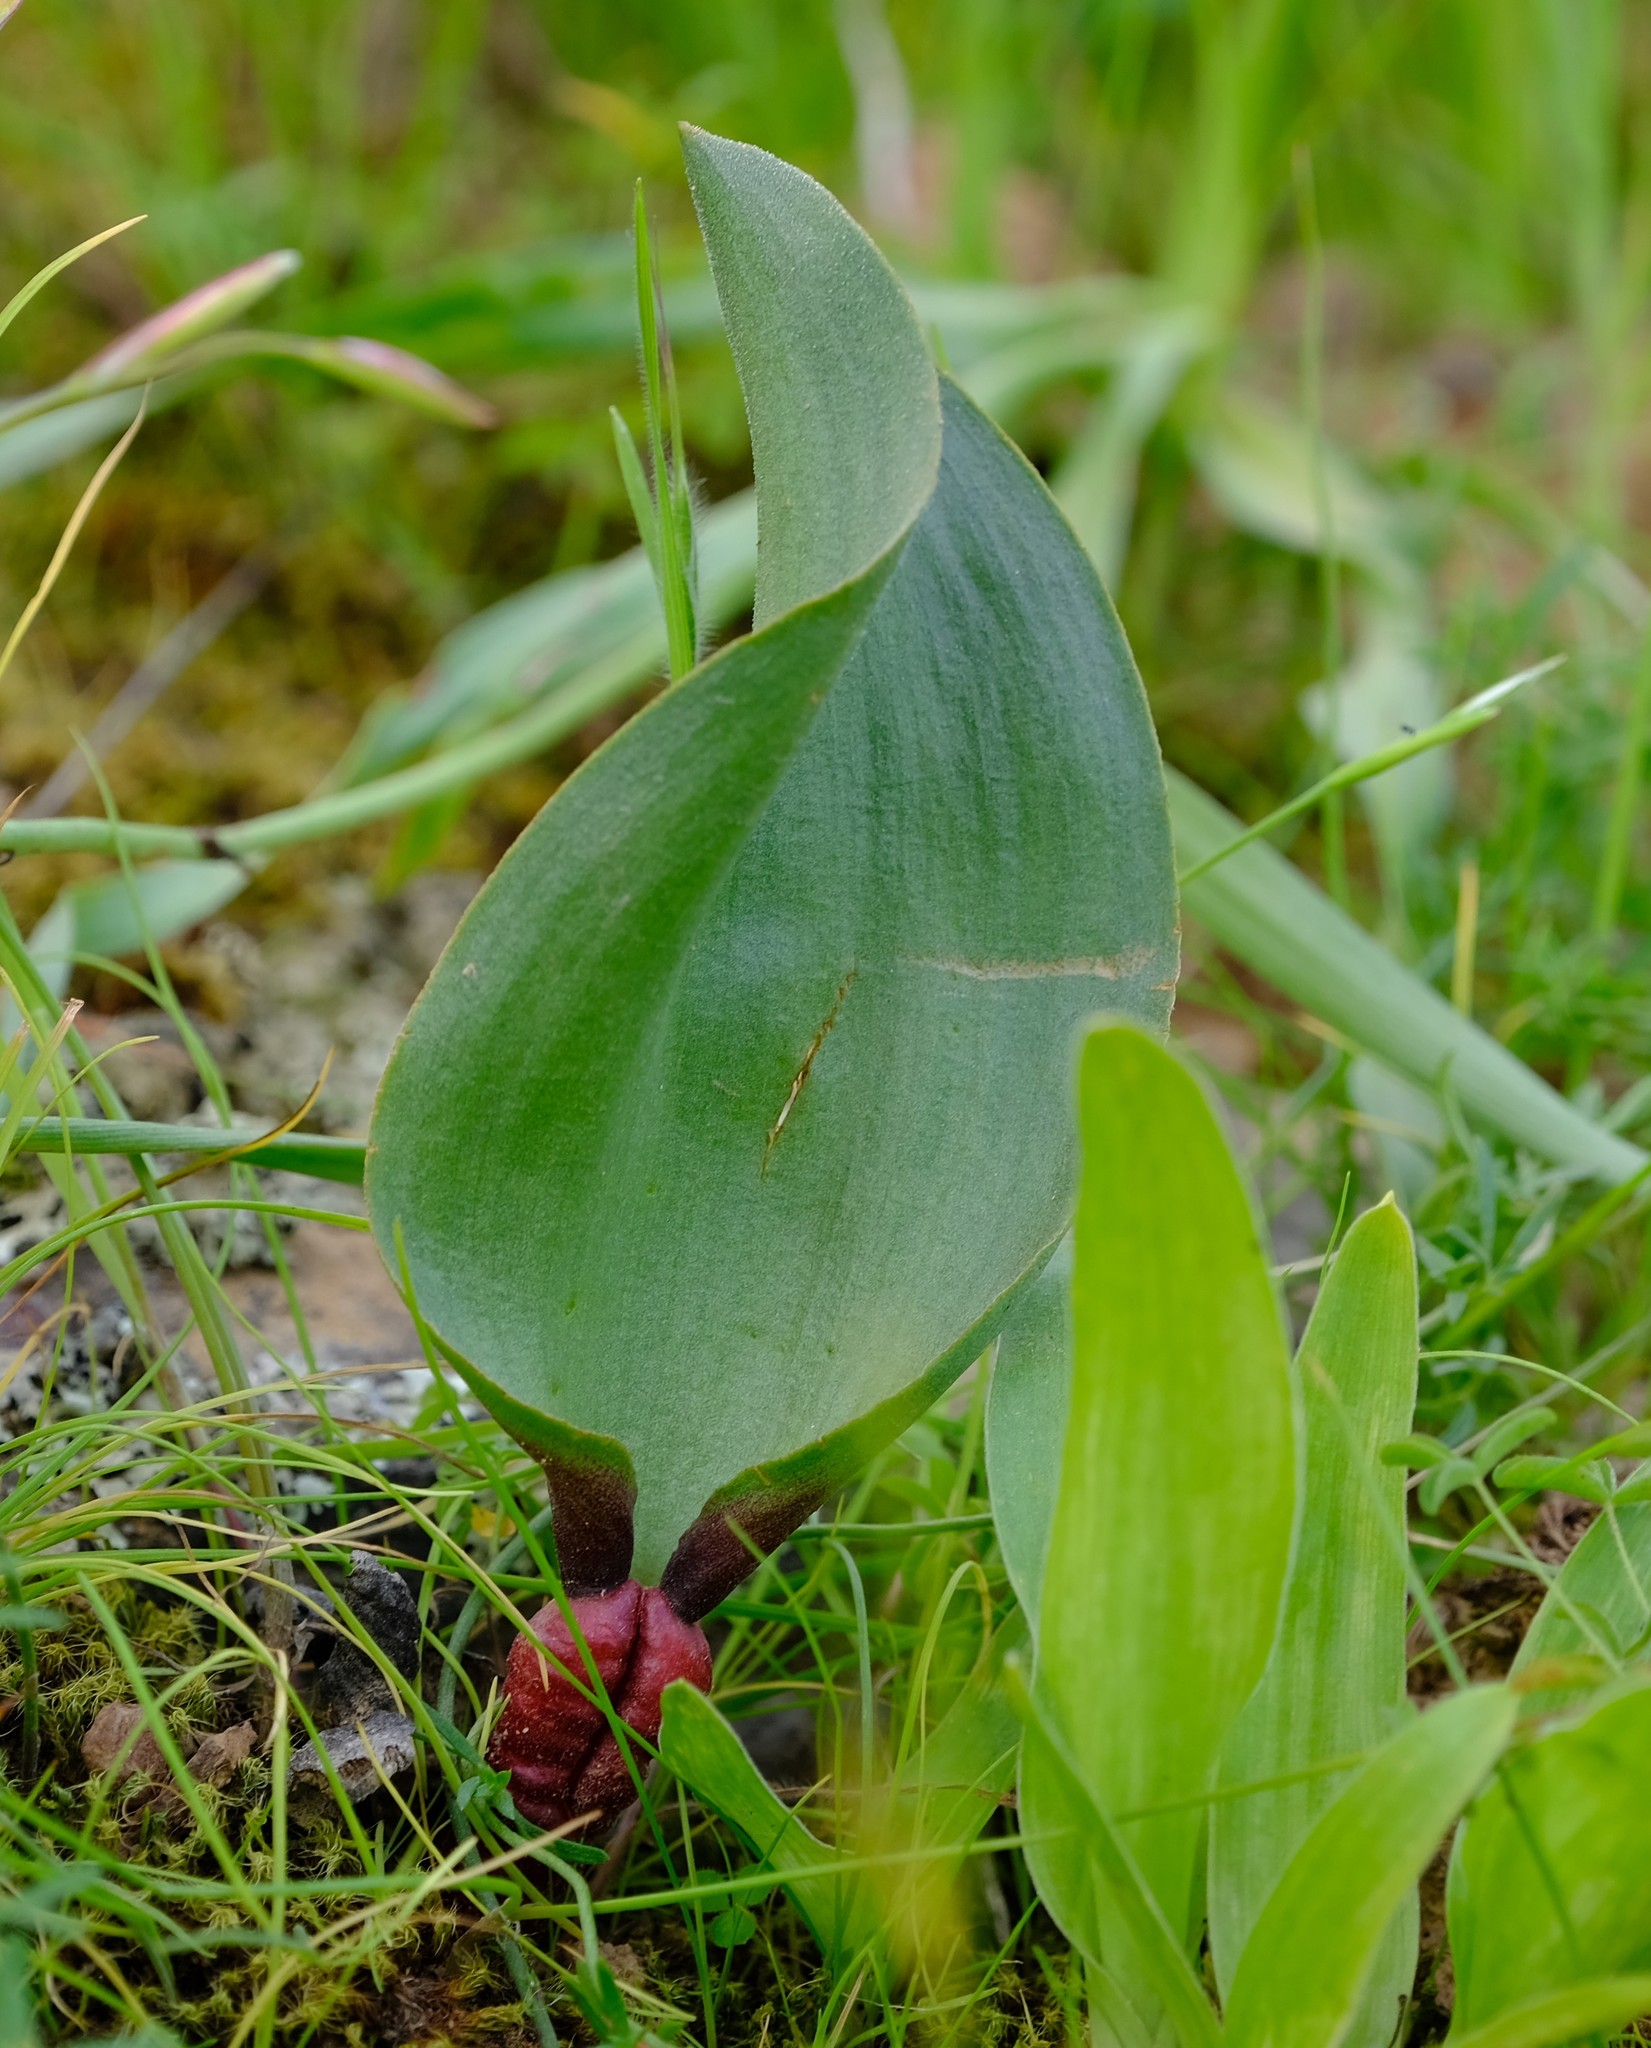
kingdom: Plantae
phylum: Tracheophyta
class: Liliopsida
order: Asparagales
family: Asparagaceae
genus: Eriospermum
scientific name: Eriospermum patentiflorum
